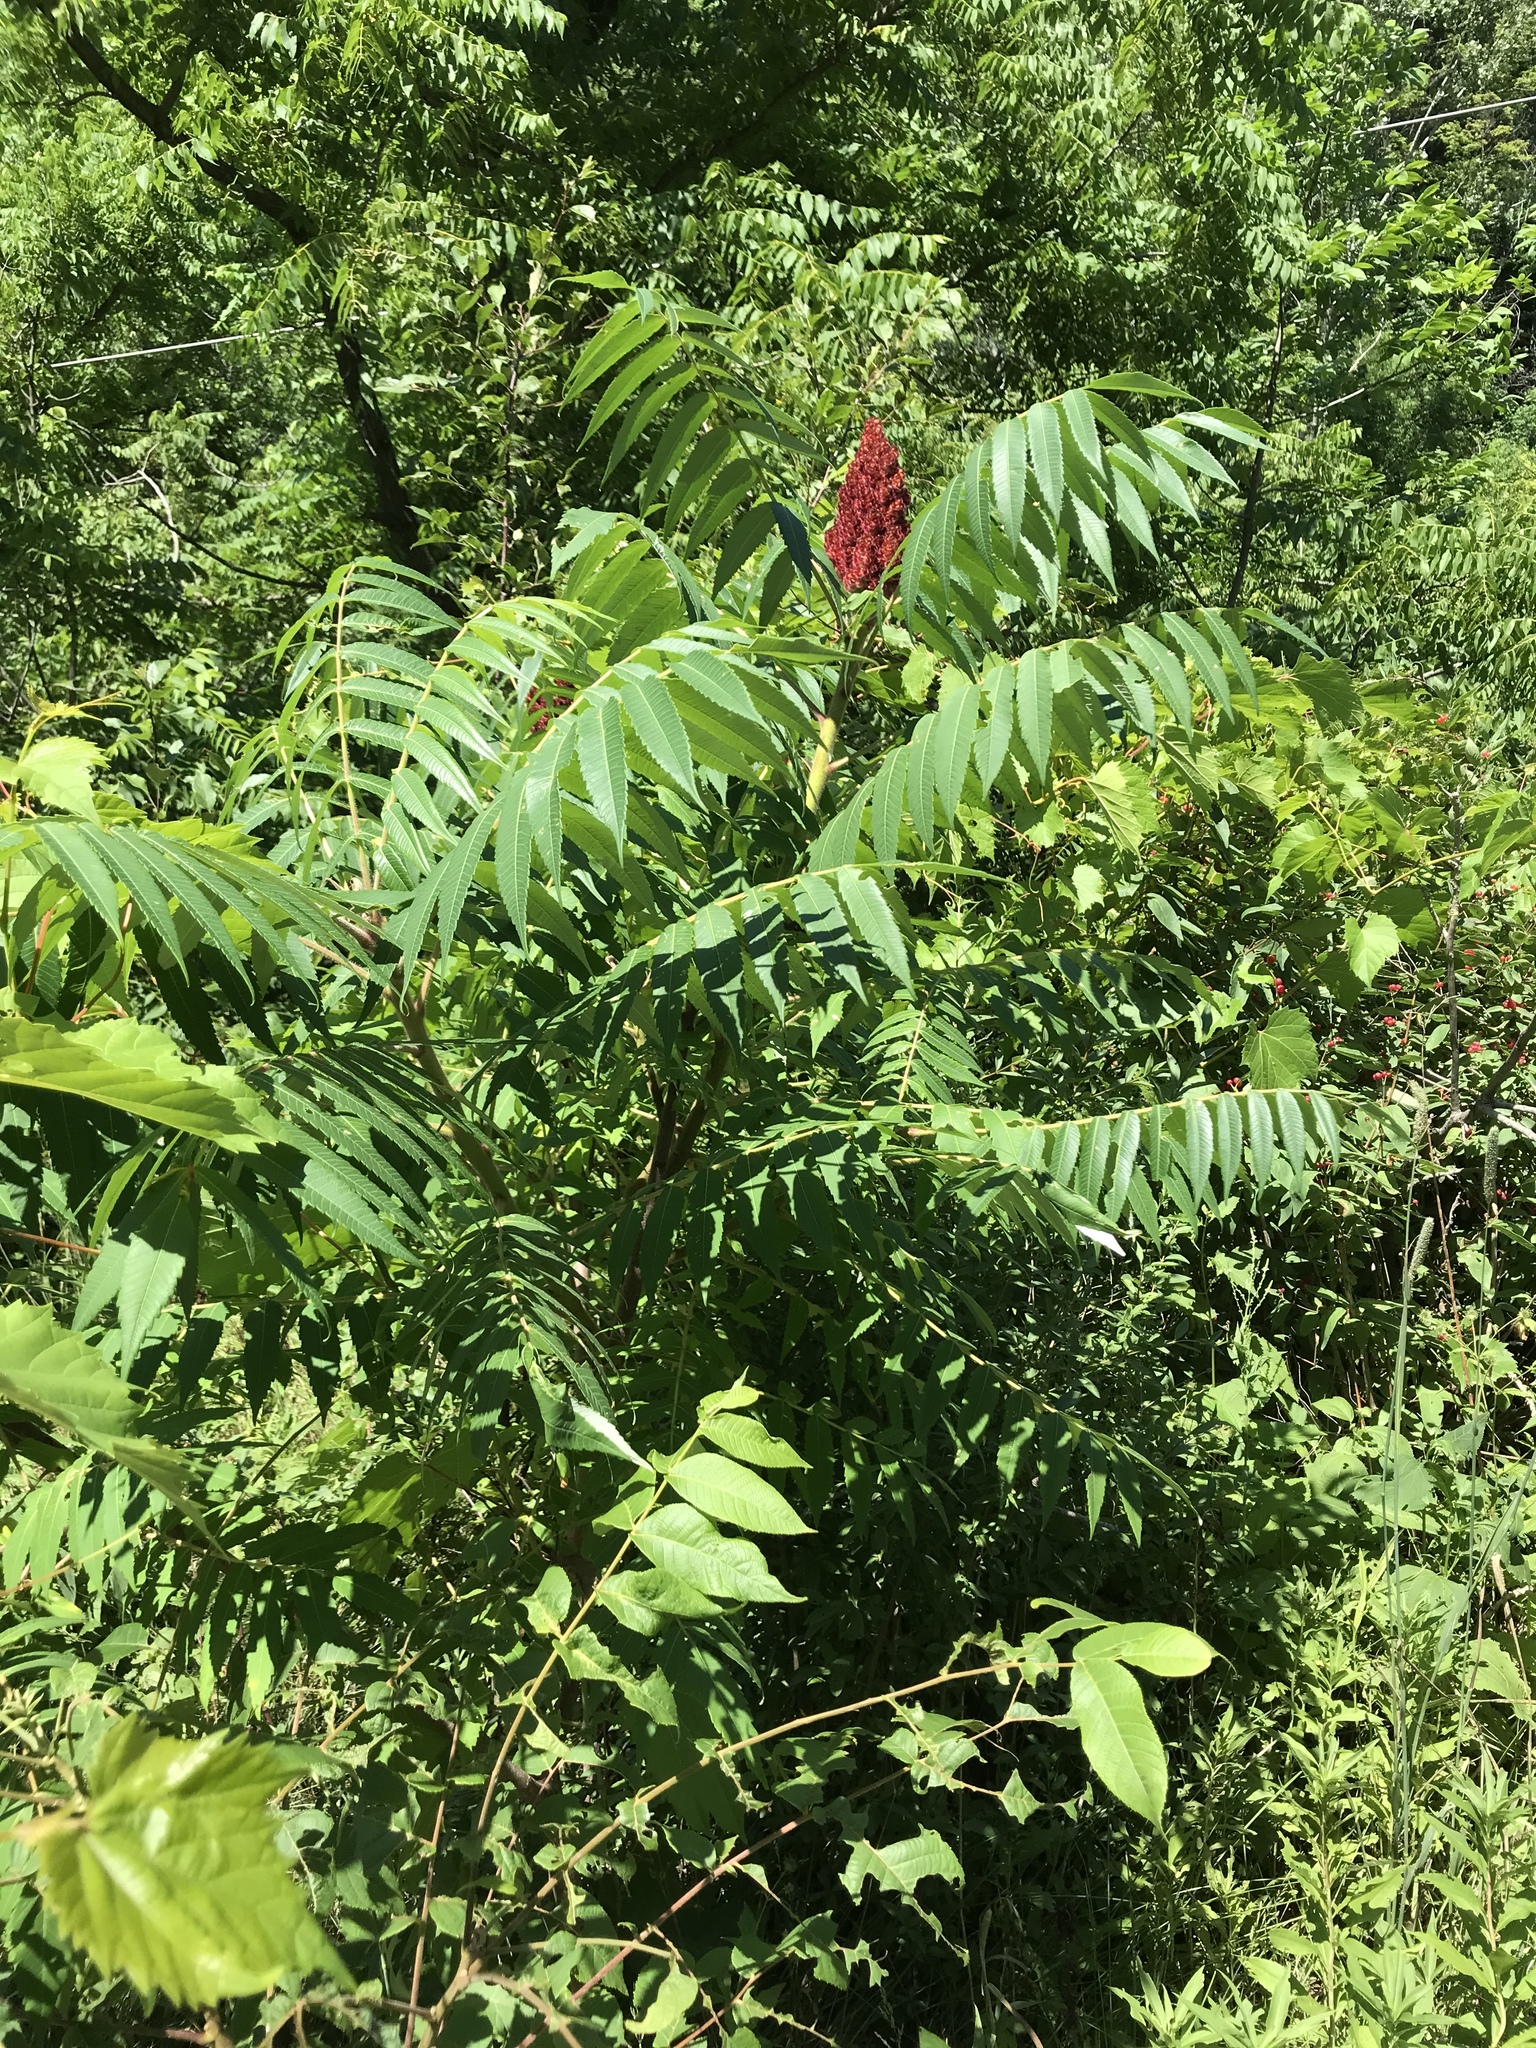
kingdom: Plantae
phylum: Tracheophyta
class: Magnoliopsida
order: Sapindales
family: Anacardiaceae
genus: Rhus
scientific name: Rhus typhina
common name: Staghorn sumac
